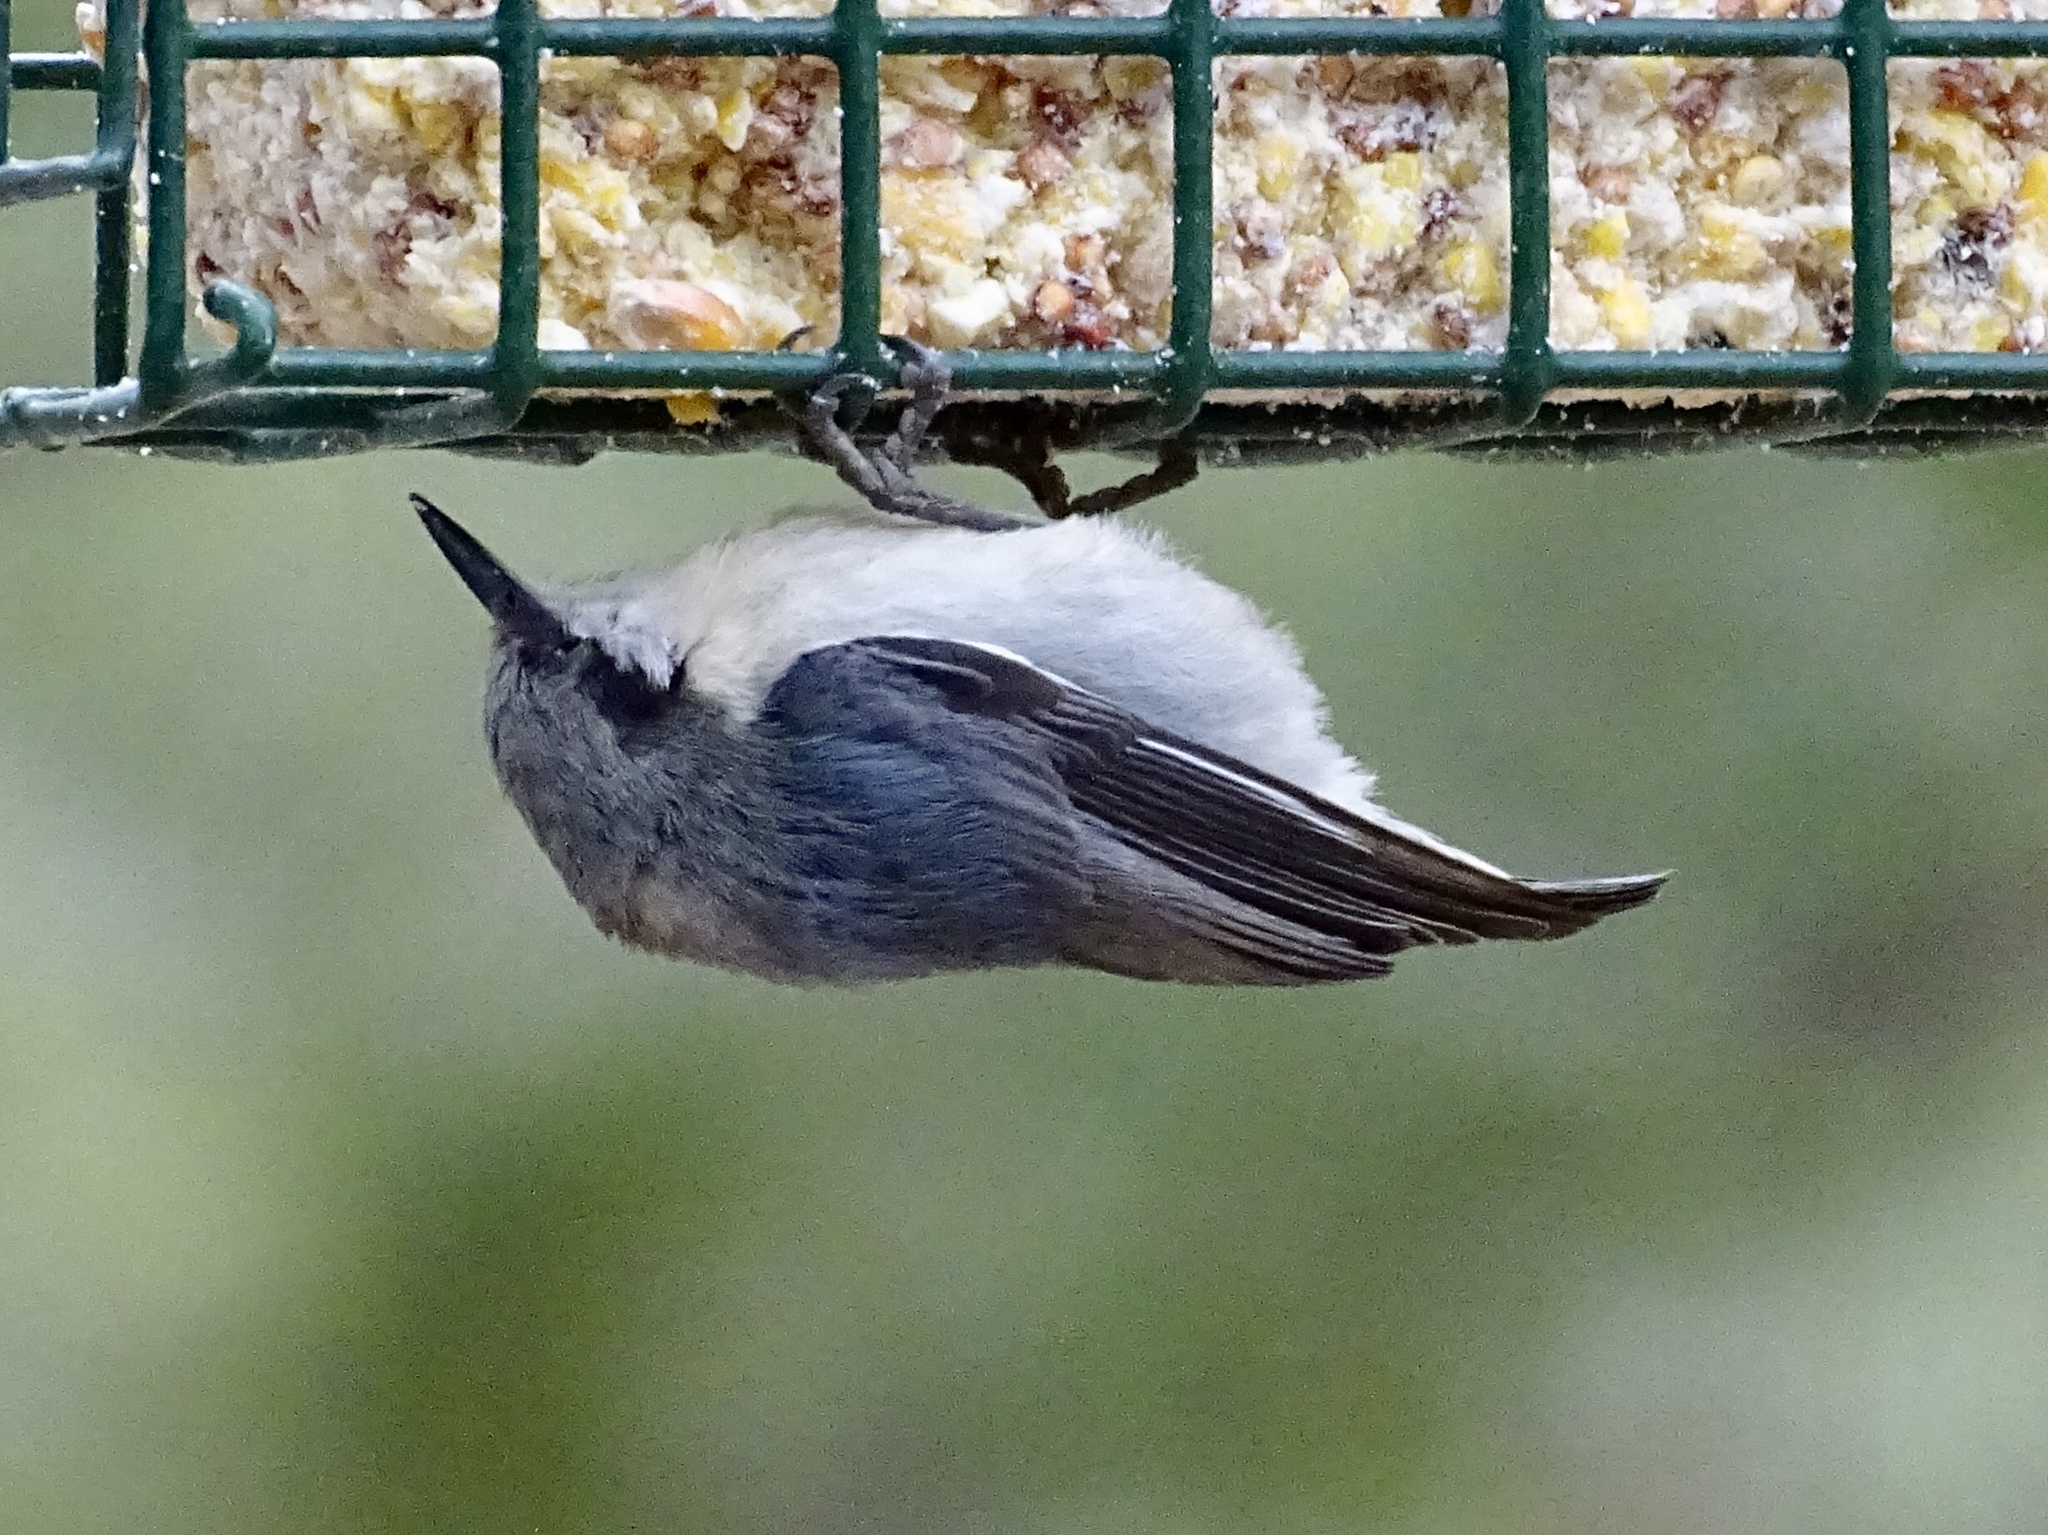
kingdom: Animalia
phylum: Chordata
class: Aves
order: Passeriformes
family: Sittidae
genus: Sitta
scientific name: Sitta pygmaea
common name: Pygmy nuthatch
